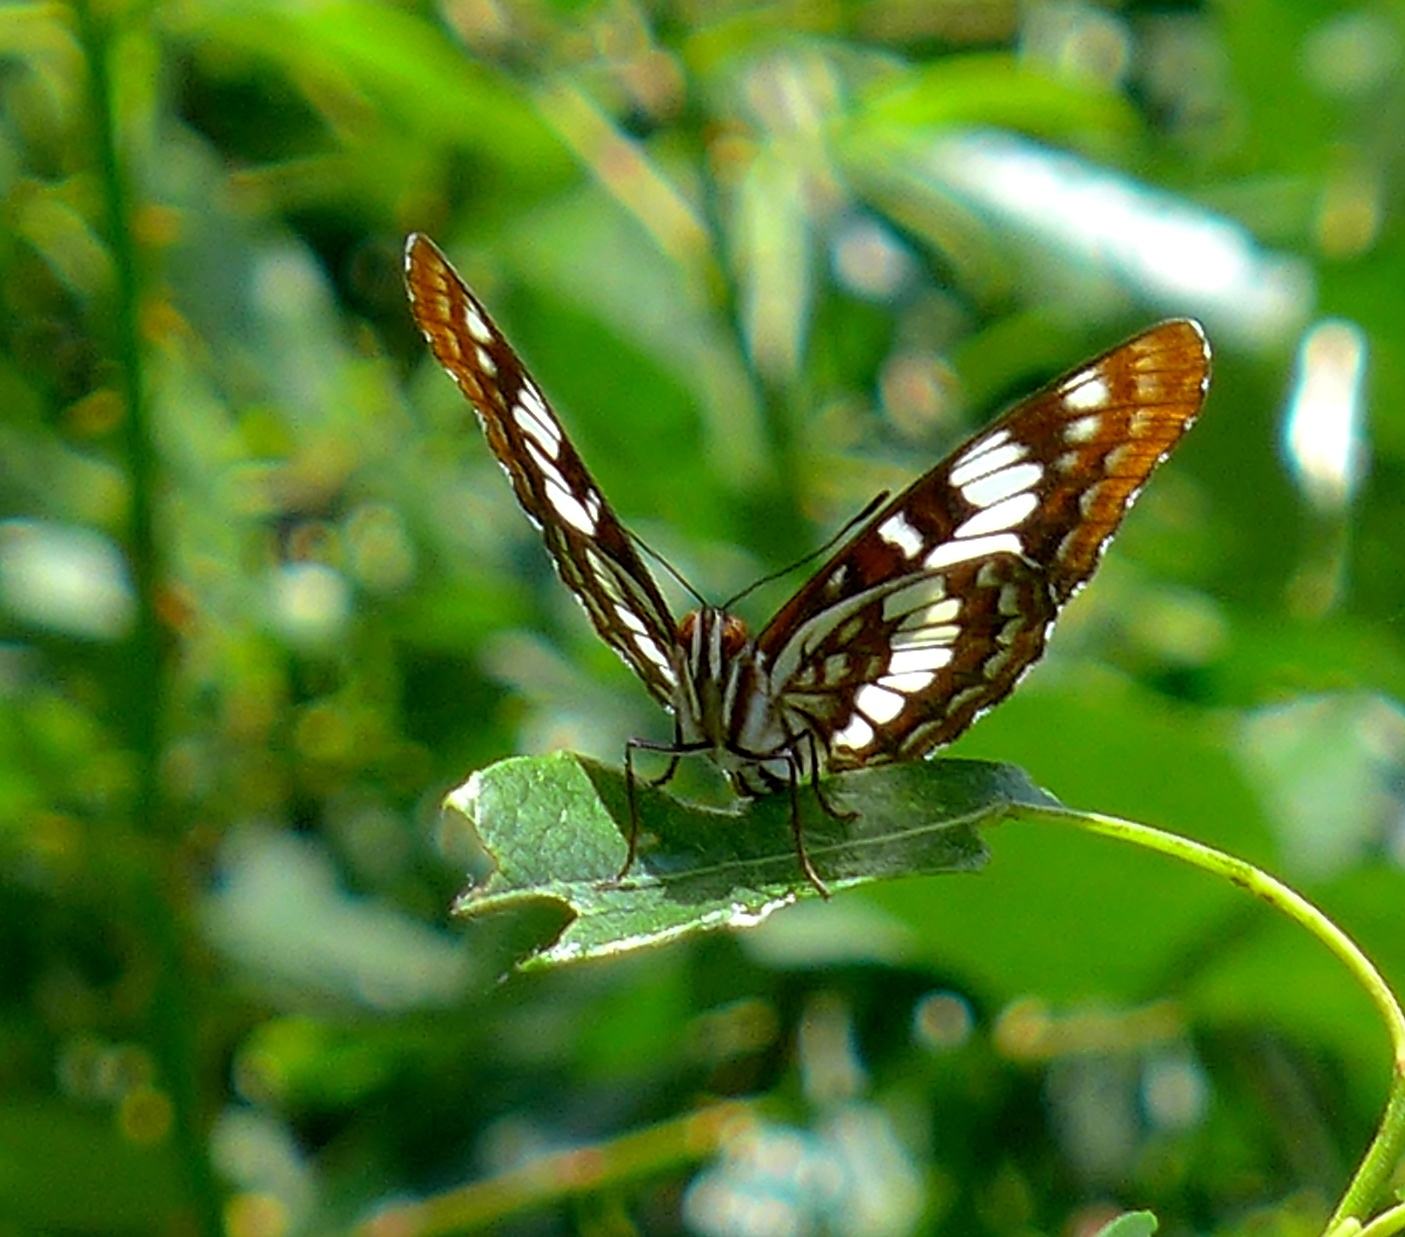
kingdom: Animalia
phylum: Arthropoda
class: Insecta
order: Lepidoptera
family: Nymphalidae
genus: Limenitis
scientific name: Limenitis lorquini
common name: Lorquin's admiral
